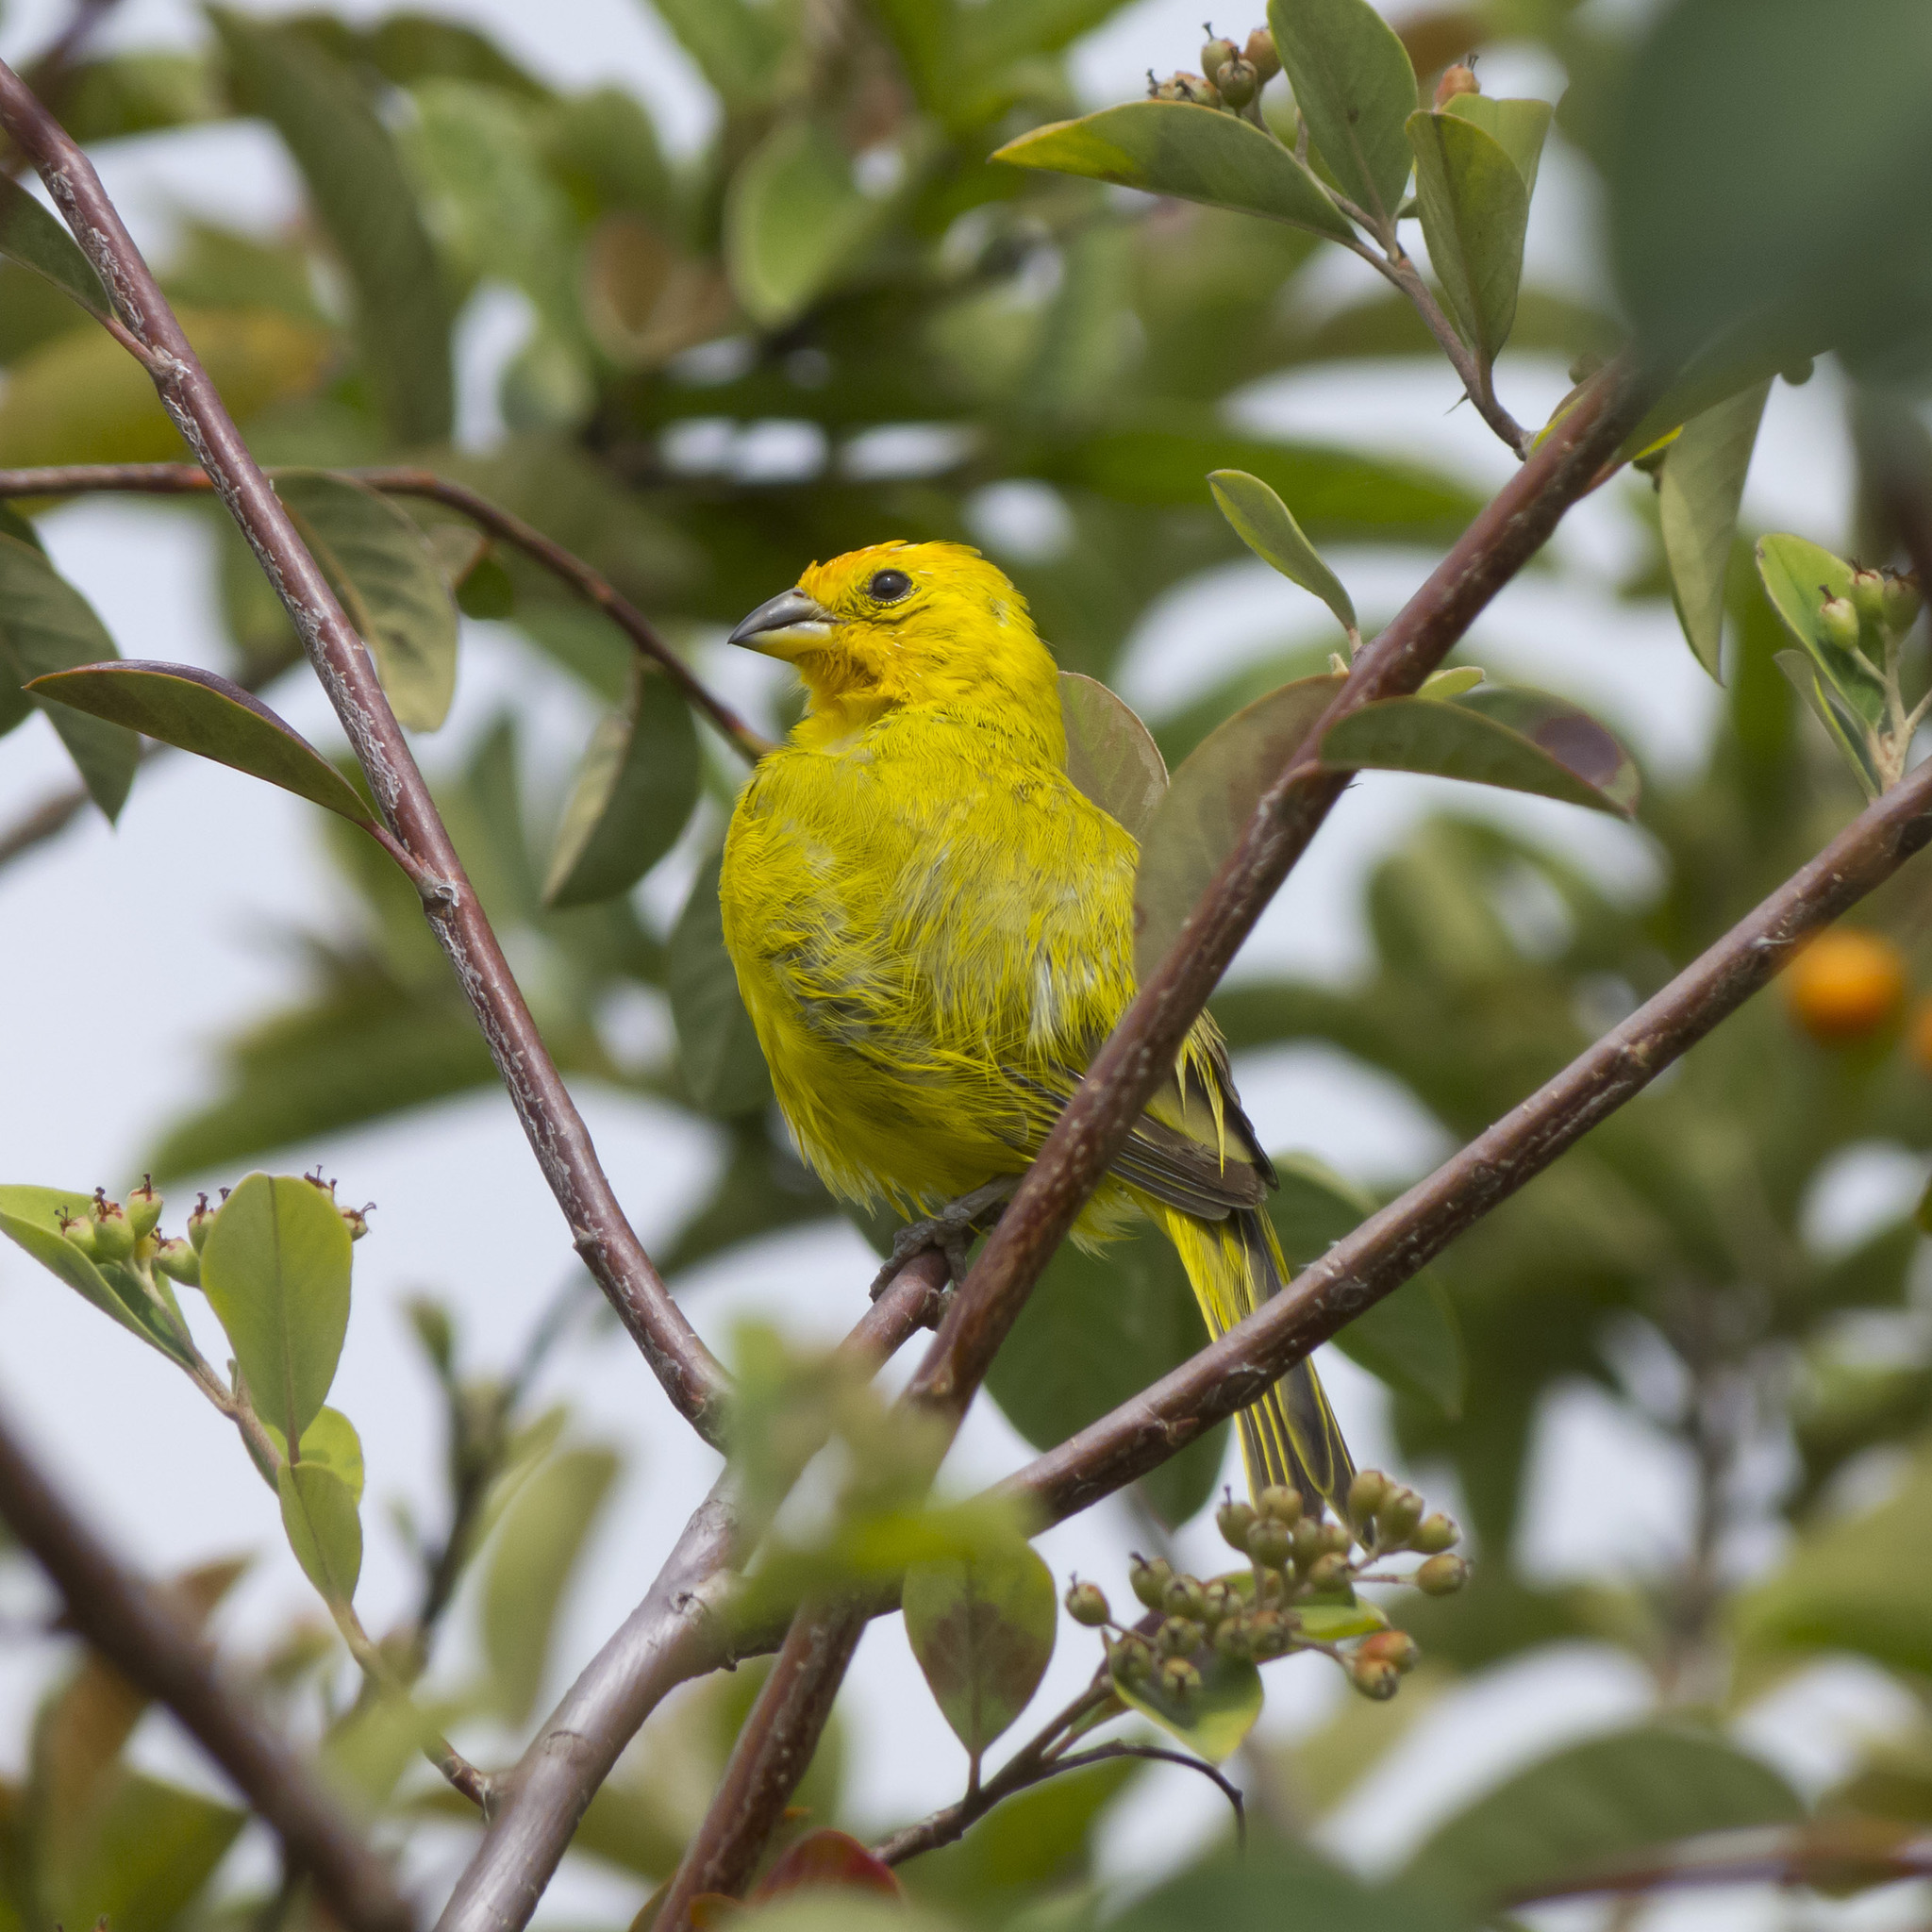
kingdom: Animalia
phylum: Chordata
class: Aves
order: Passeriformes
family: Thraupidae
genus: Sicalis
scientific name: Sicalis flaveola
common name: Saffron finch
